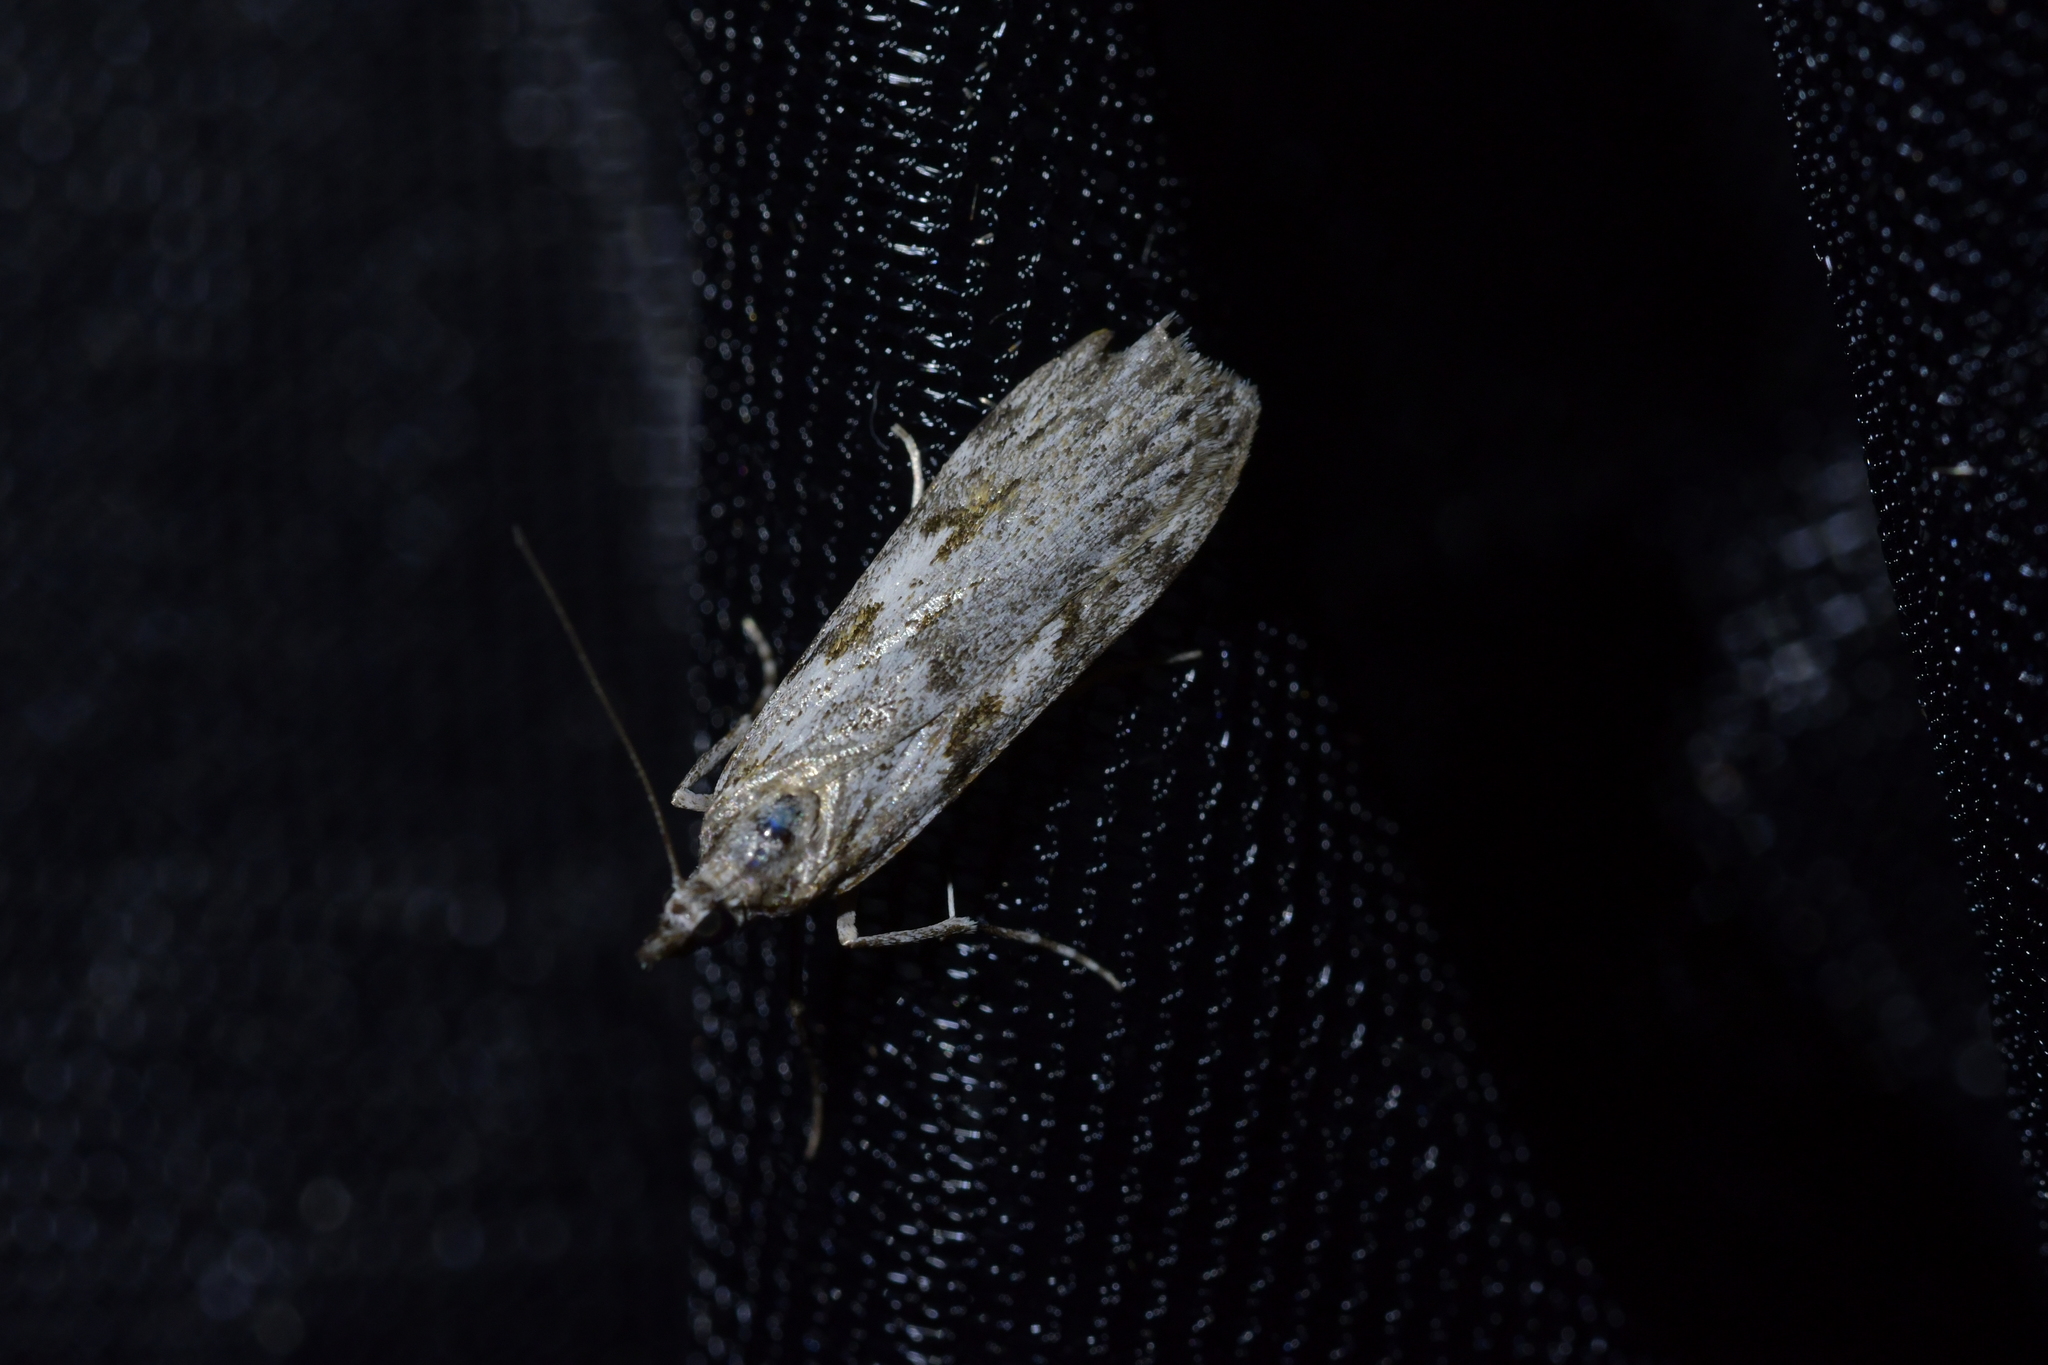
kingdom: Animalia
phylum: Arthropoda
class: Insecta
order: Lepidoptera
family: Crambidae
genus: Scoparia
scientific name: Scoparia halopis
